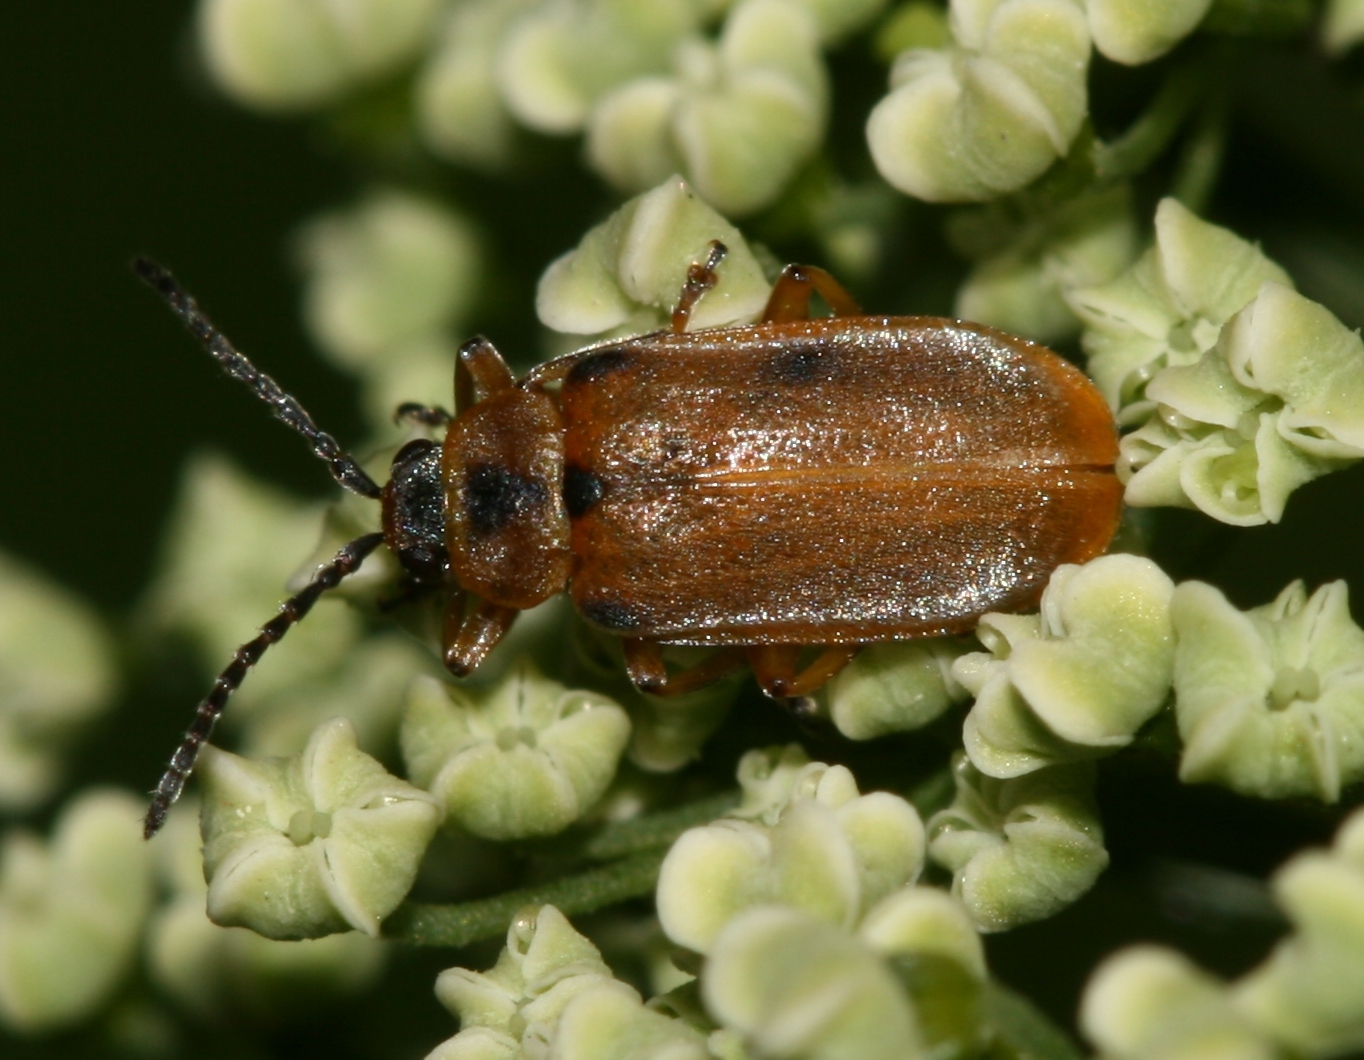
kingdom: Animalia
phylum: Arthropoda
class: Insecta
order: Coleoptera
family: Chrysomelidae
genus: Galerucella
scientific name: Galerucella lineola
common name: Brown willow beetle
